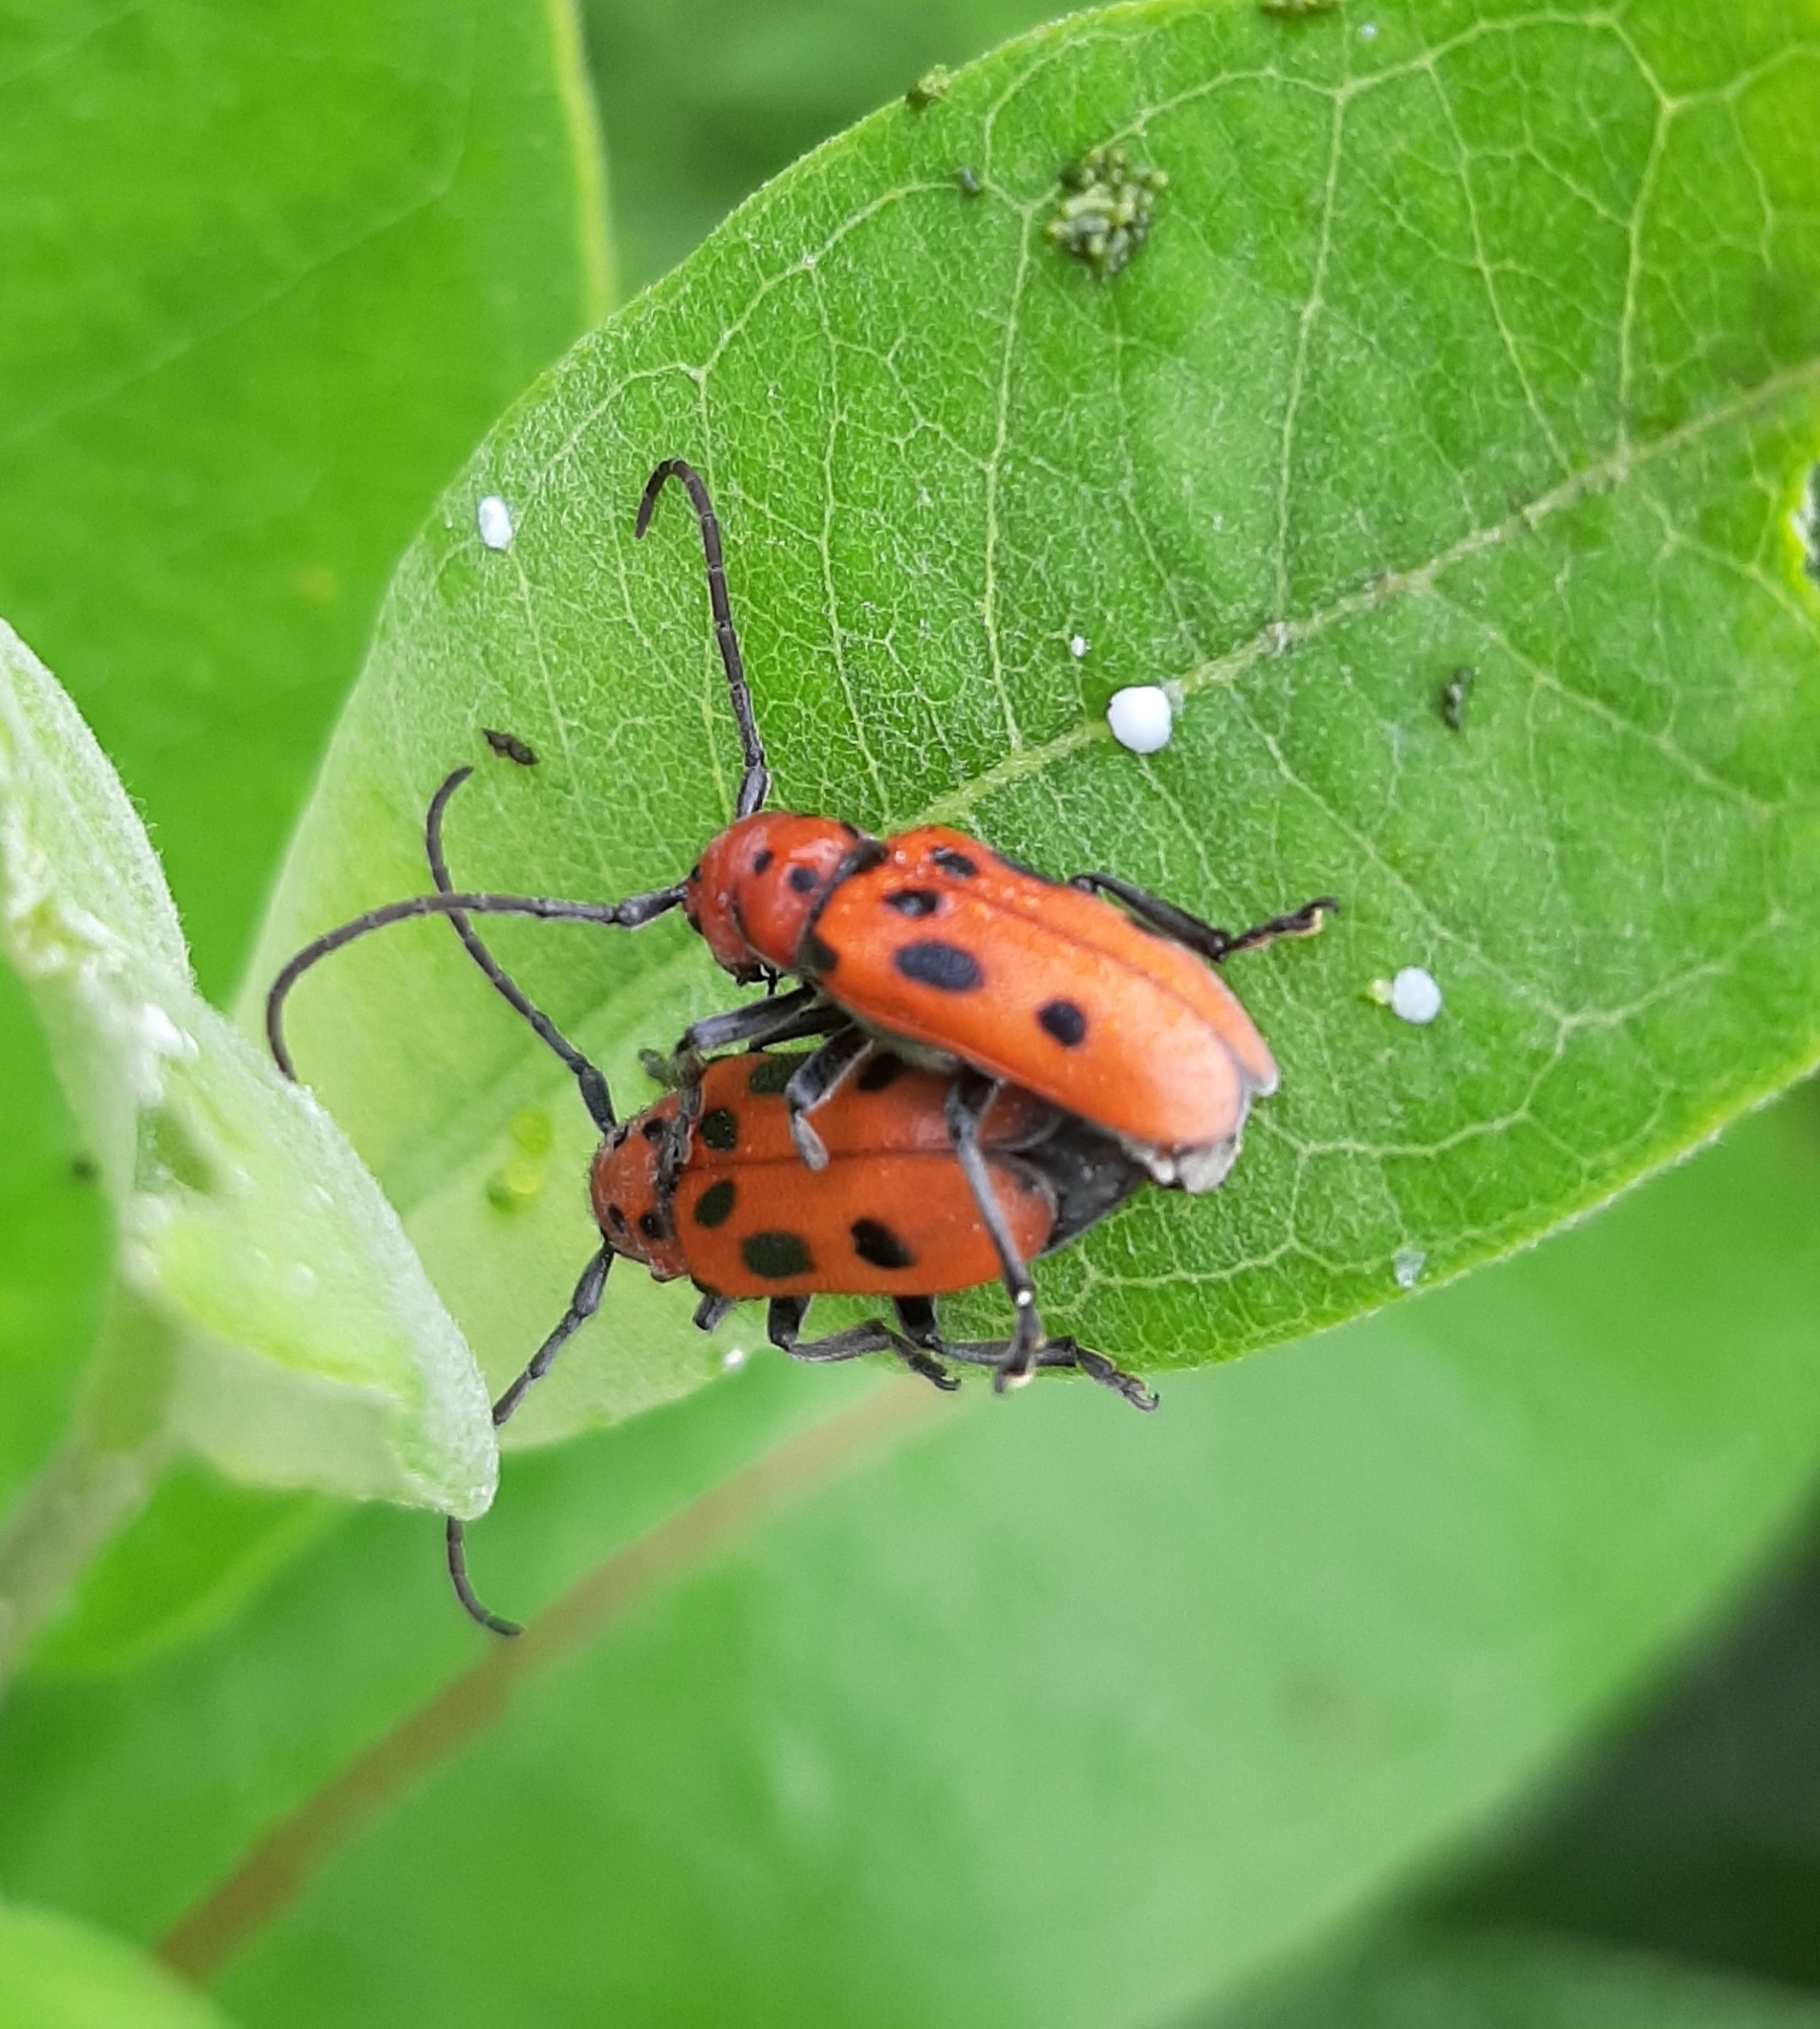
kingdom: Animalia
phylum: Arthropoda
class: Insecta
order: Coleoptera
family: Cerambycidae
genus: Tetraopes
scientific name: Tetraopes tetrophthalmus
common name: Red milkweed beetle
